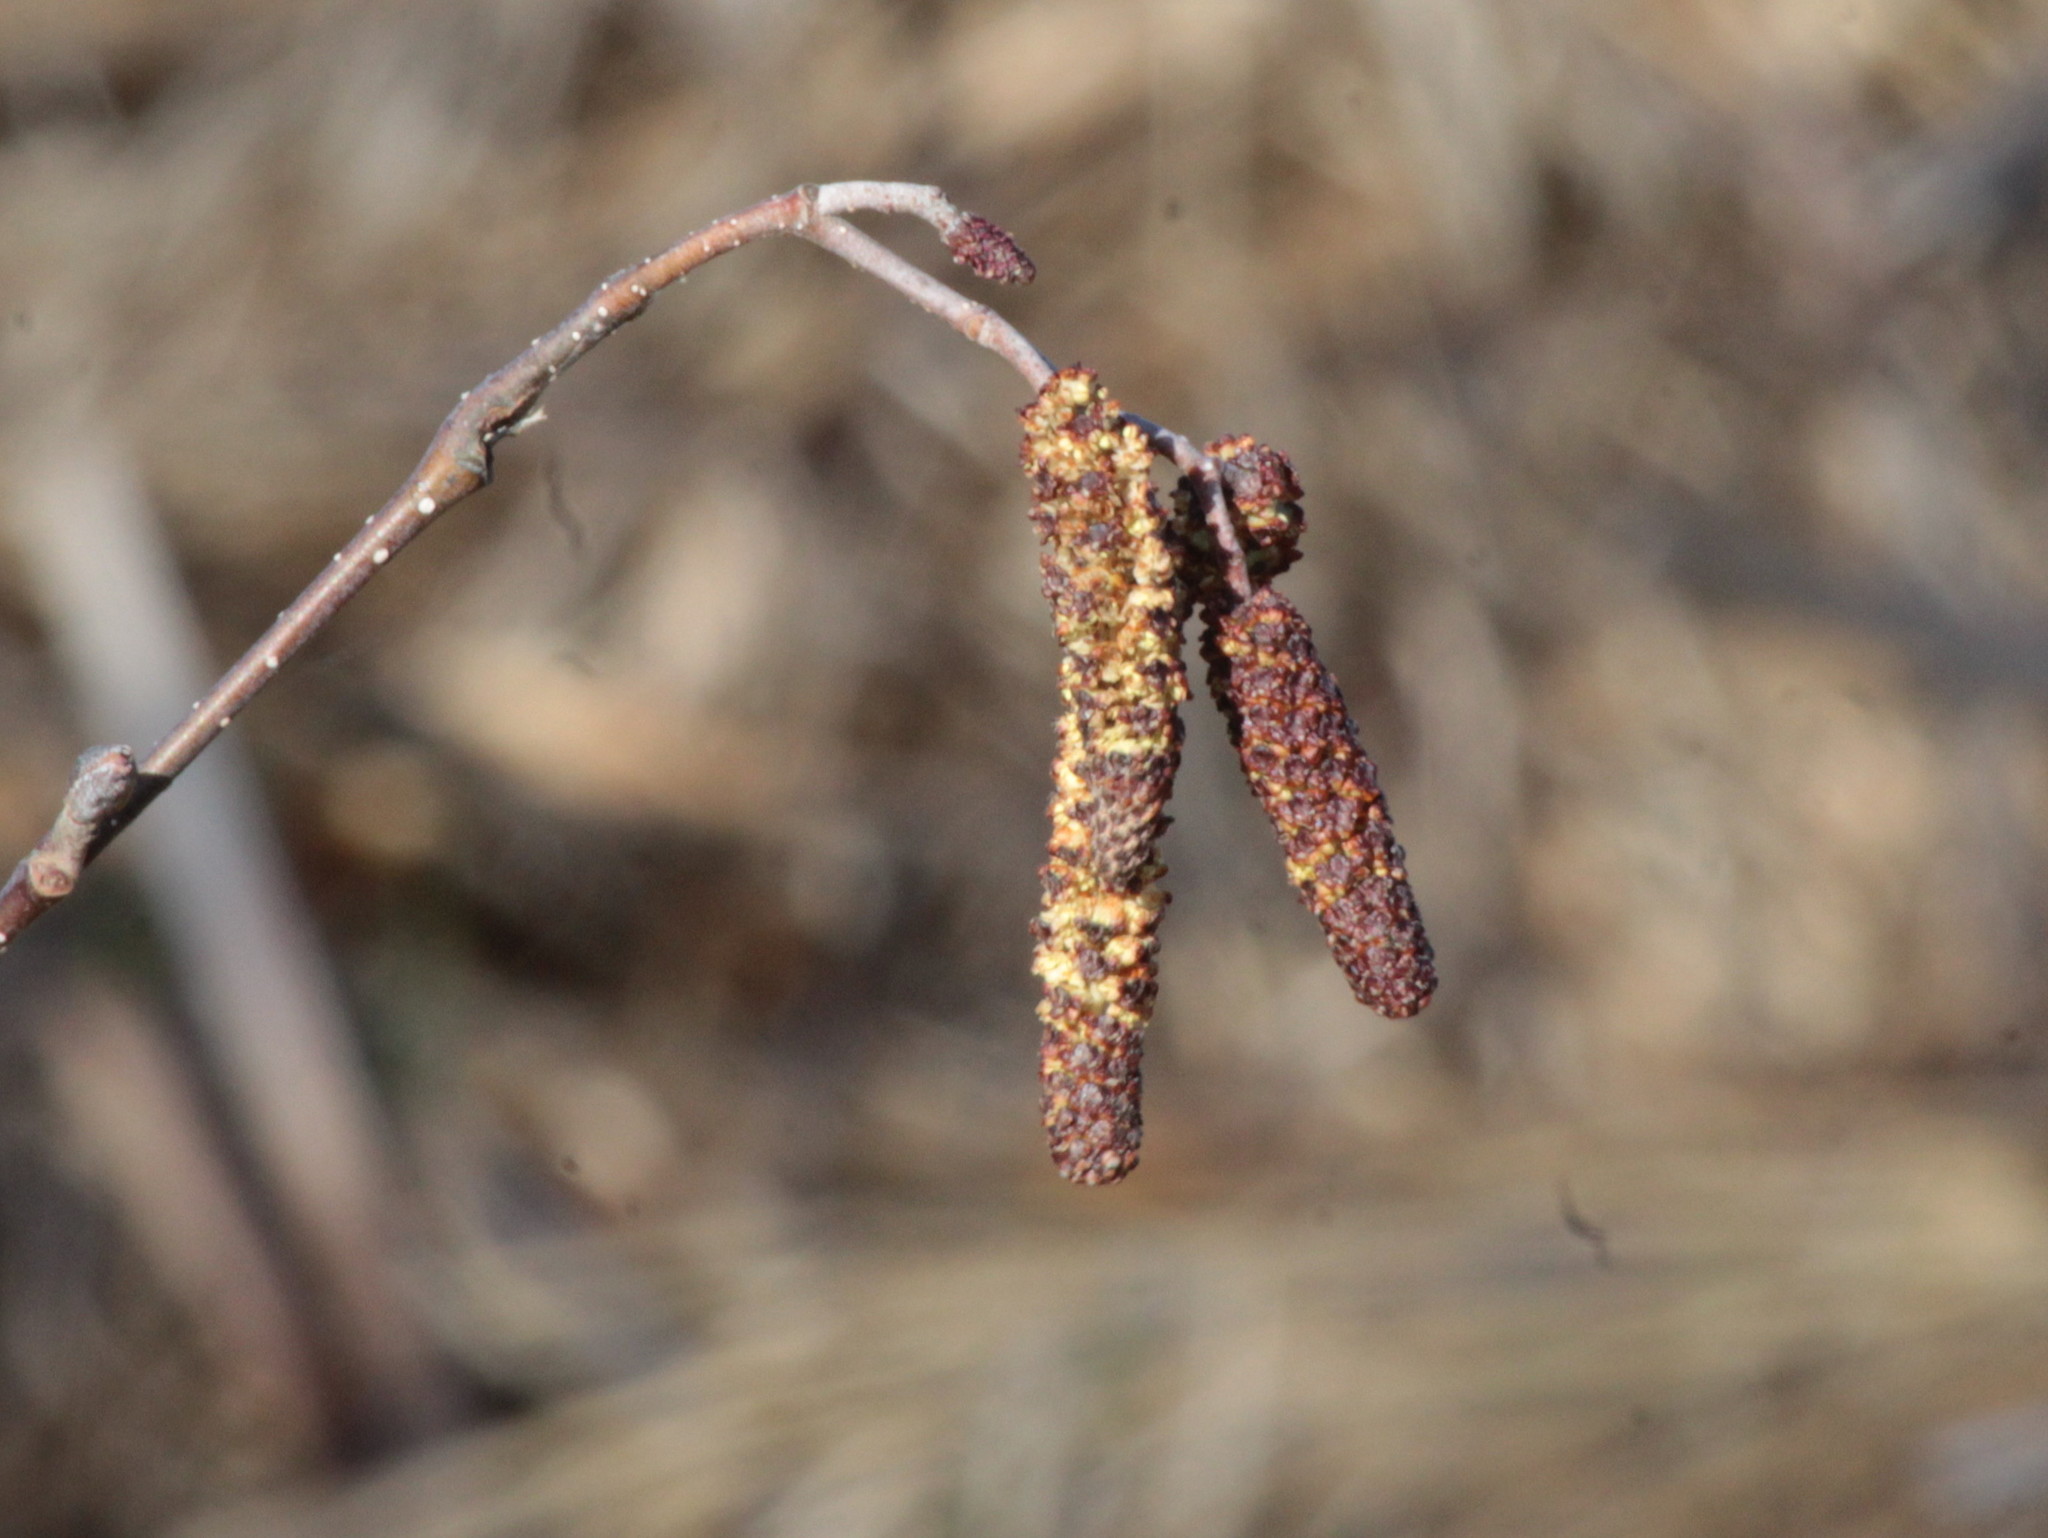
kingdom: Plantae
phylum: Tracheophyta
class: Magnoliopsida
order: Fagales
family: Betulaceae
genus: Alnus
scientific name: Alnus incana
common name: Grey alder
